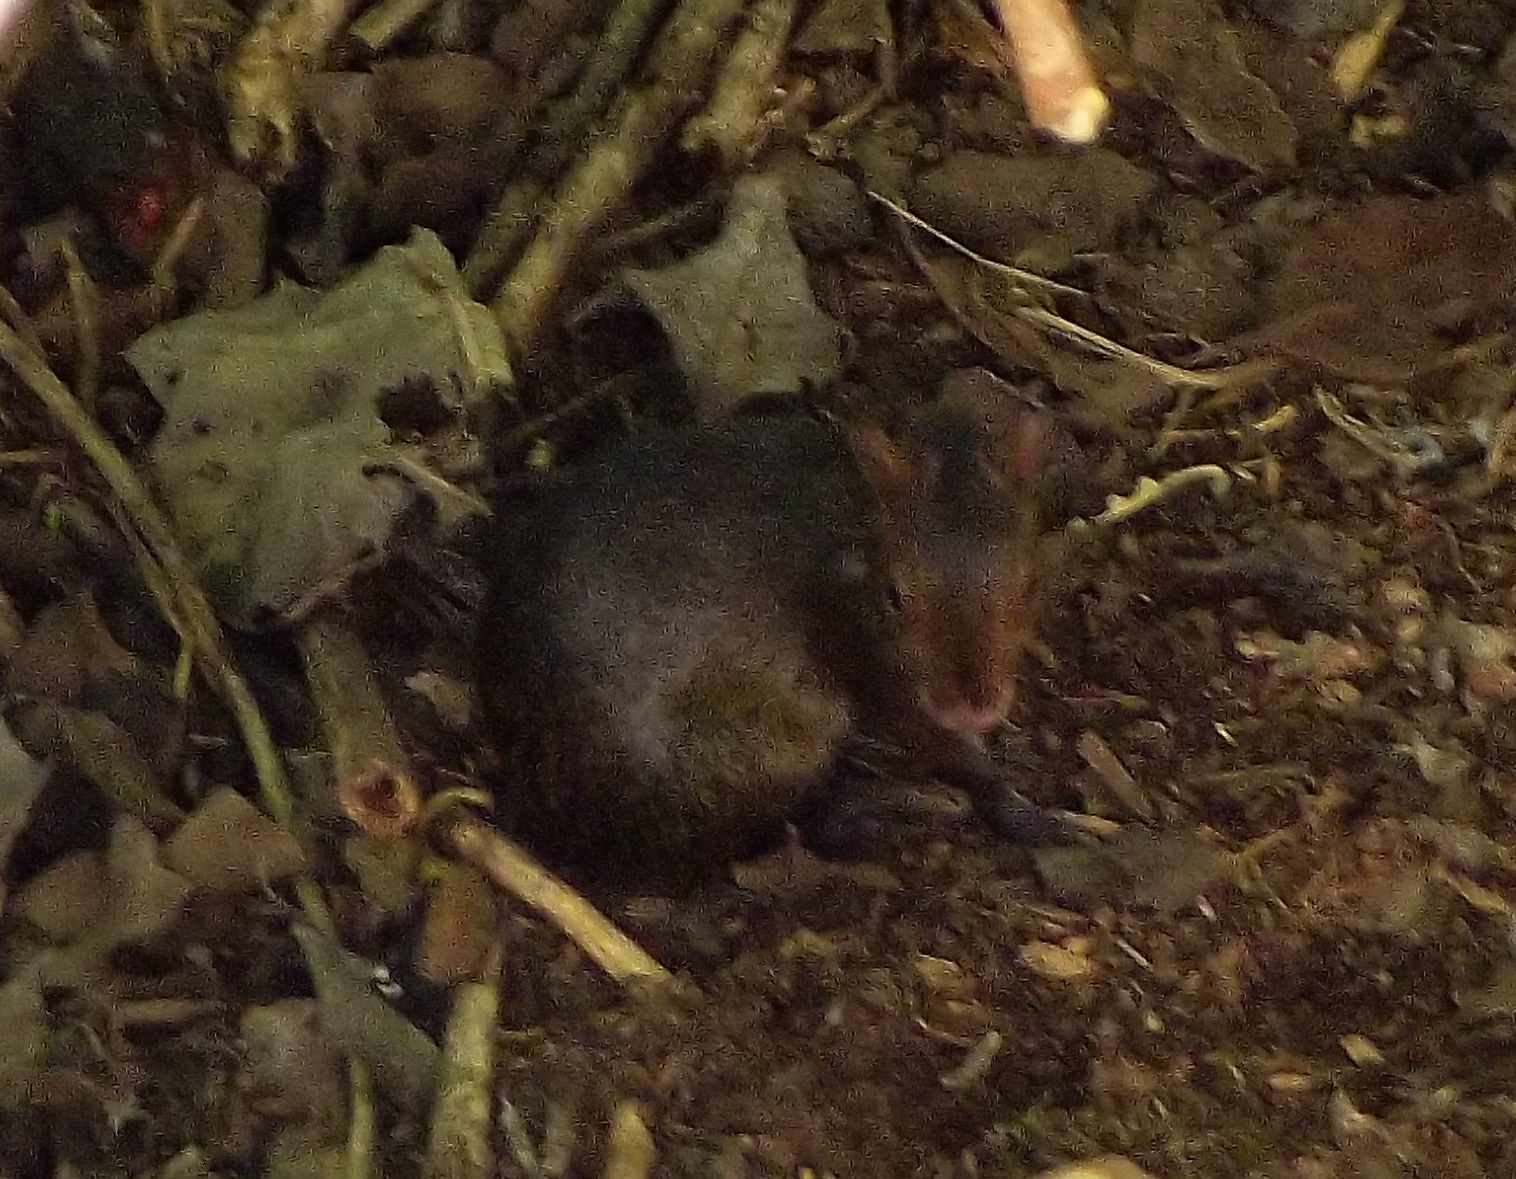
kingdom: Animalia
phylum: Chordata
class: Mammalia
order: Rodentia
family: Dasyproctidae
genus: Dasyprocta
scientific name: Dasyprocta fuliginosa
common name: Black agouti
